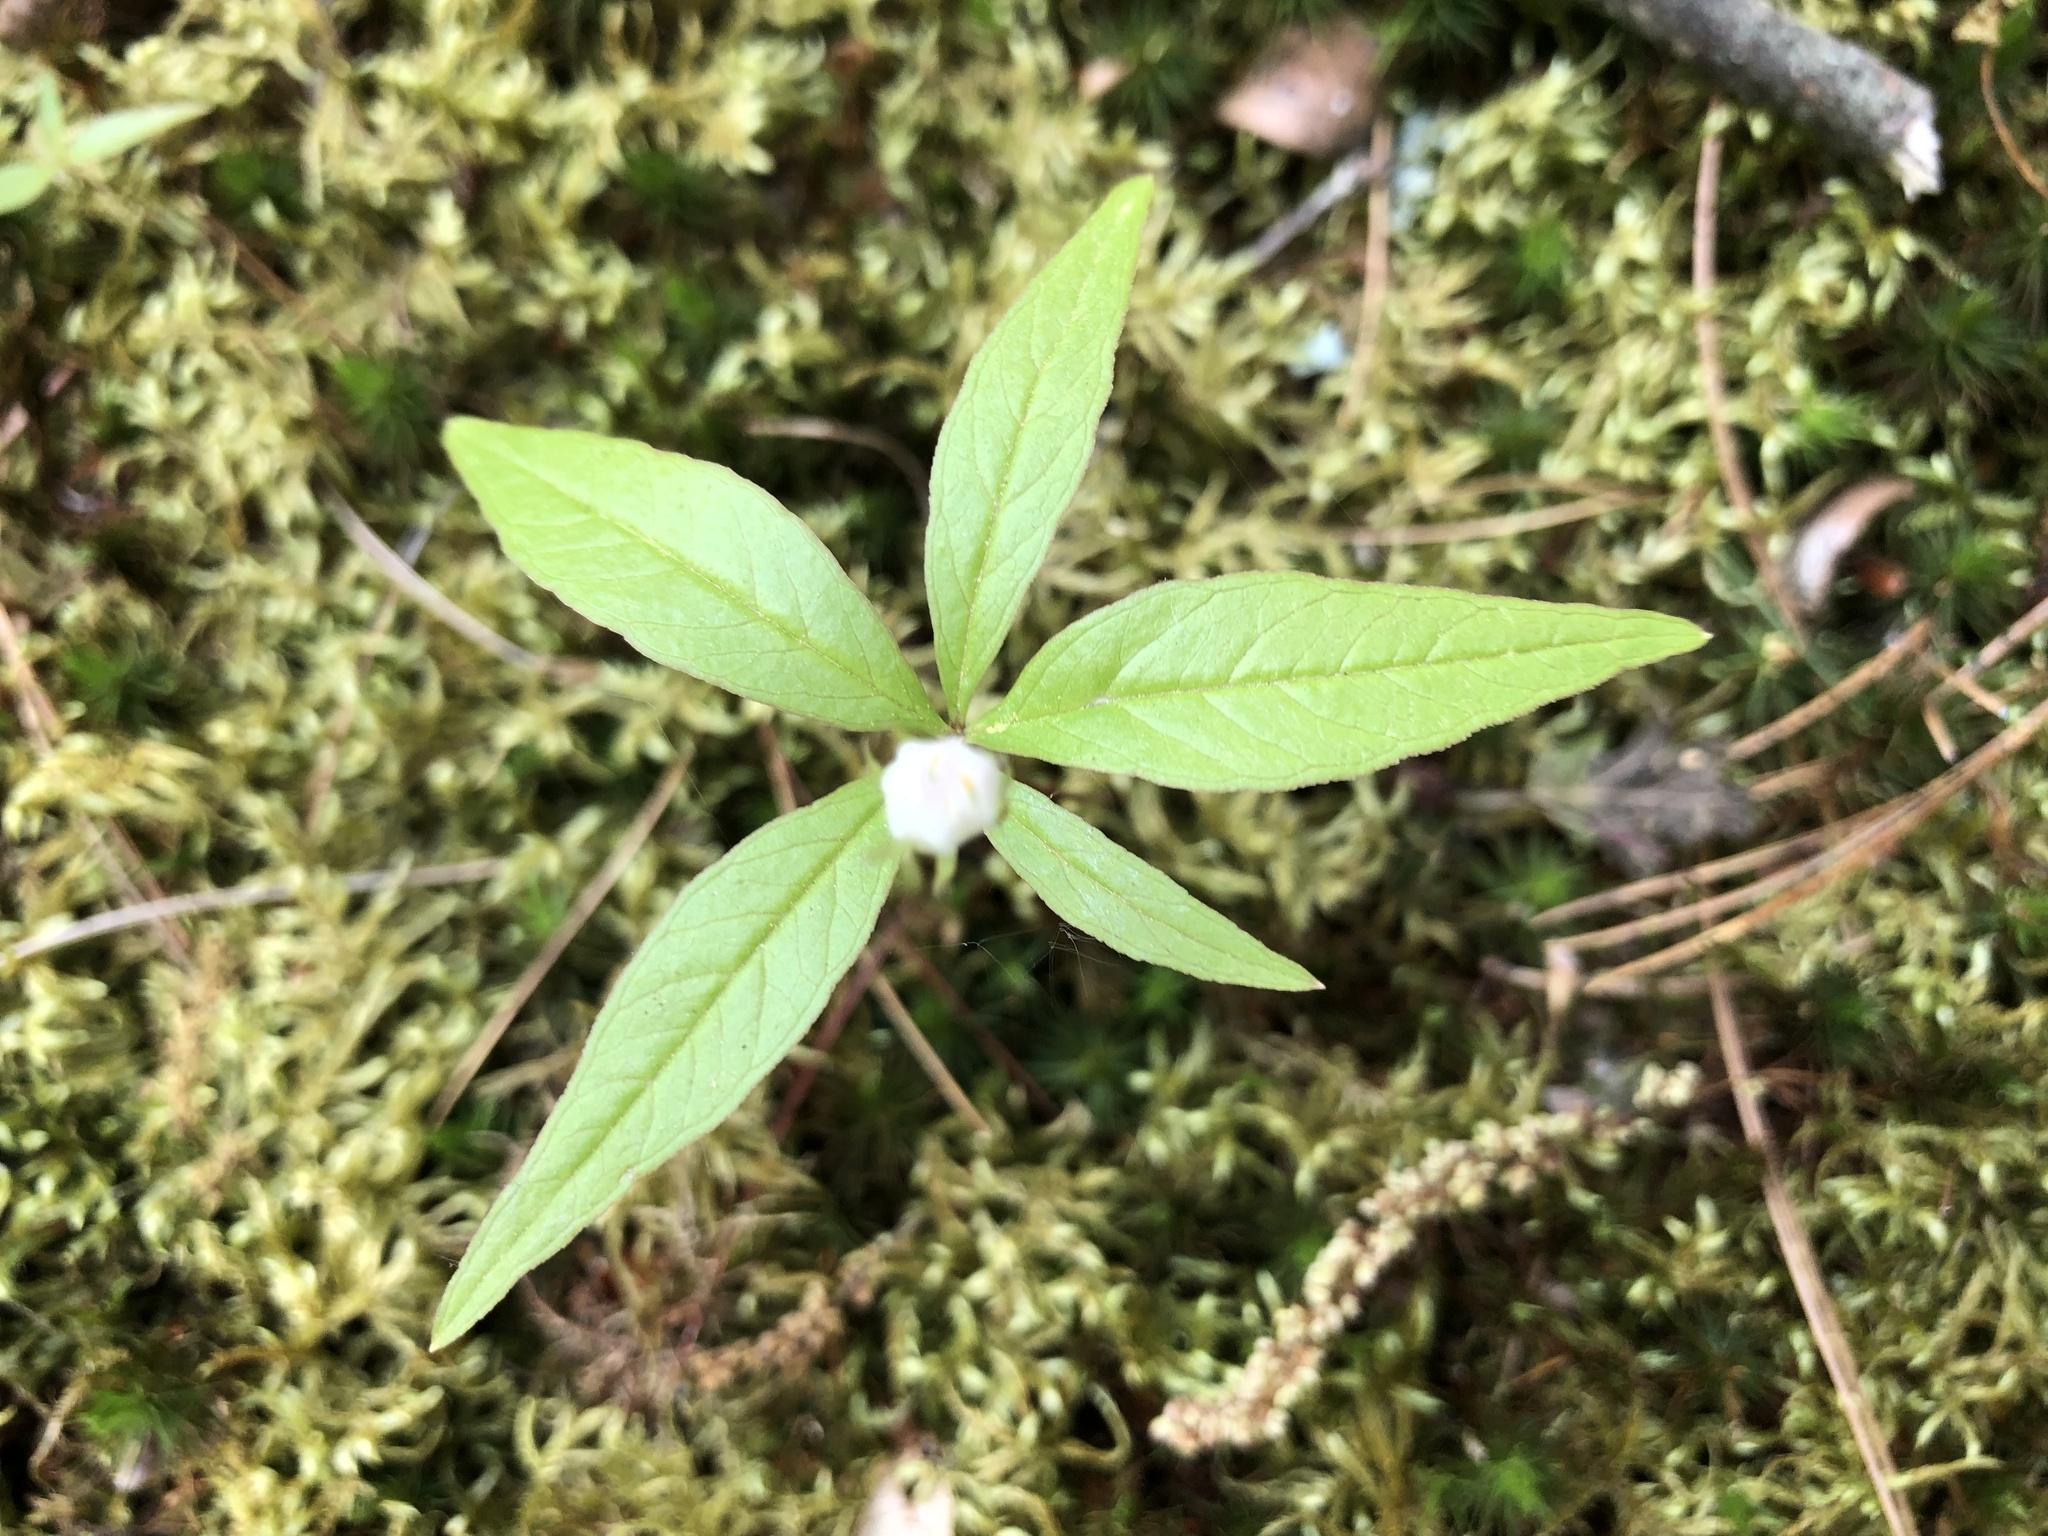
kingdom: Plantae
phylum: Tracheophyta
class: Magnoliopsida
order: Ericales
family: Primulaceae
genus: Lysimachia
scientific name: Lysimachia borealis
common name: American starflower
